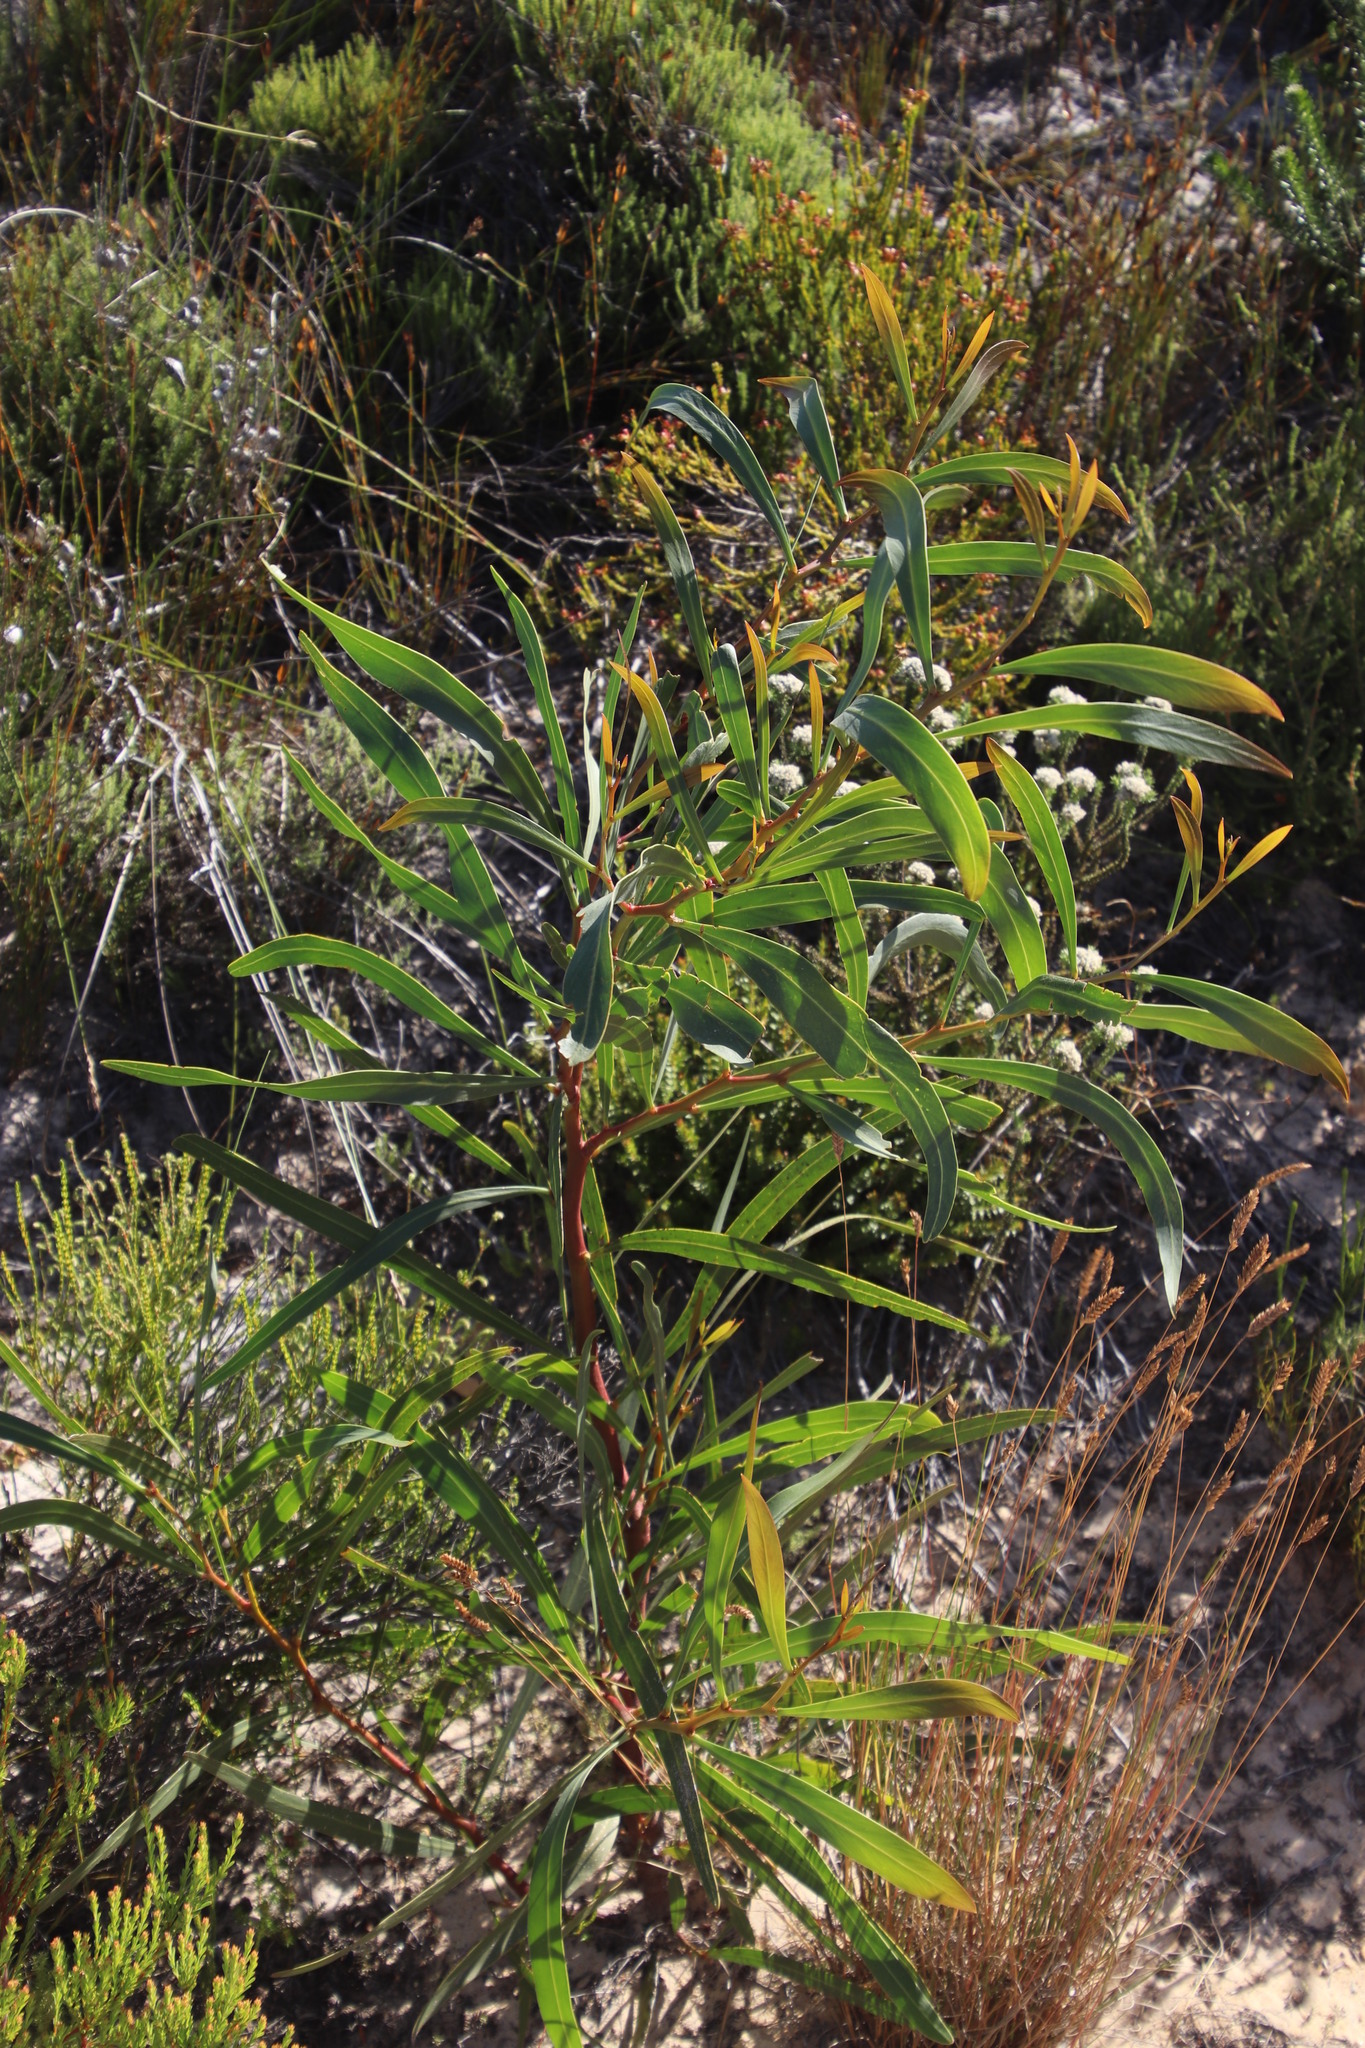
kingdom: Plantae
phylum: Tracheophyta
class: Magnoliopsida
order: Fabales
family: Fabaceae
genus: Acacia
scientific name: Acacia saligna
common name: Orange wattle
